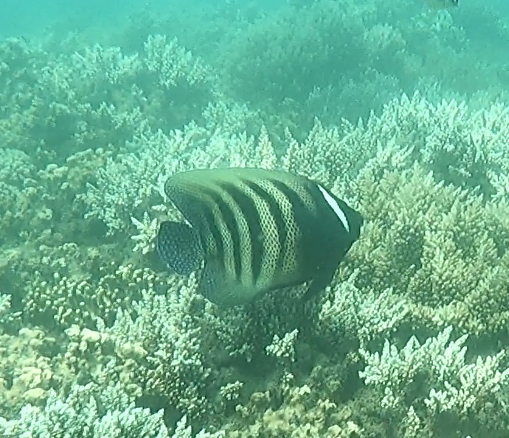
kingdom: Animalia
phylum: Chordata
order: Perciformes
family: Pomacanthidae
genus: Pomacanthus
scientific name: Pomacanthus sexstriatus
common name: Six-banded angelfish
